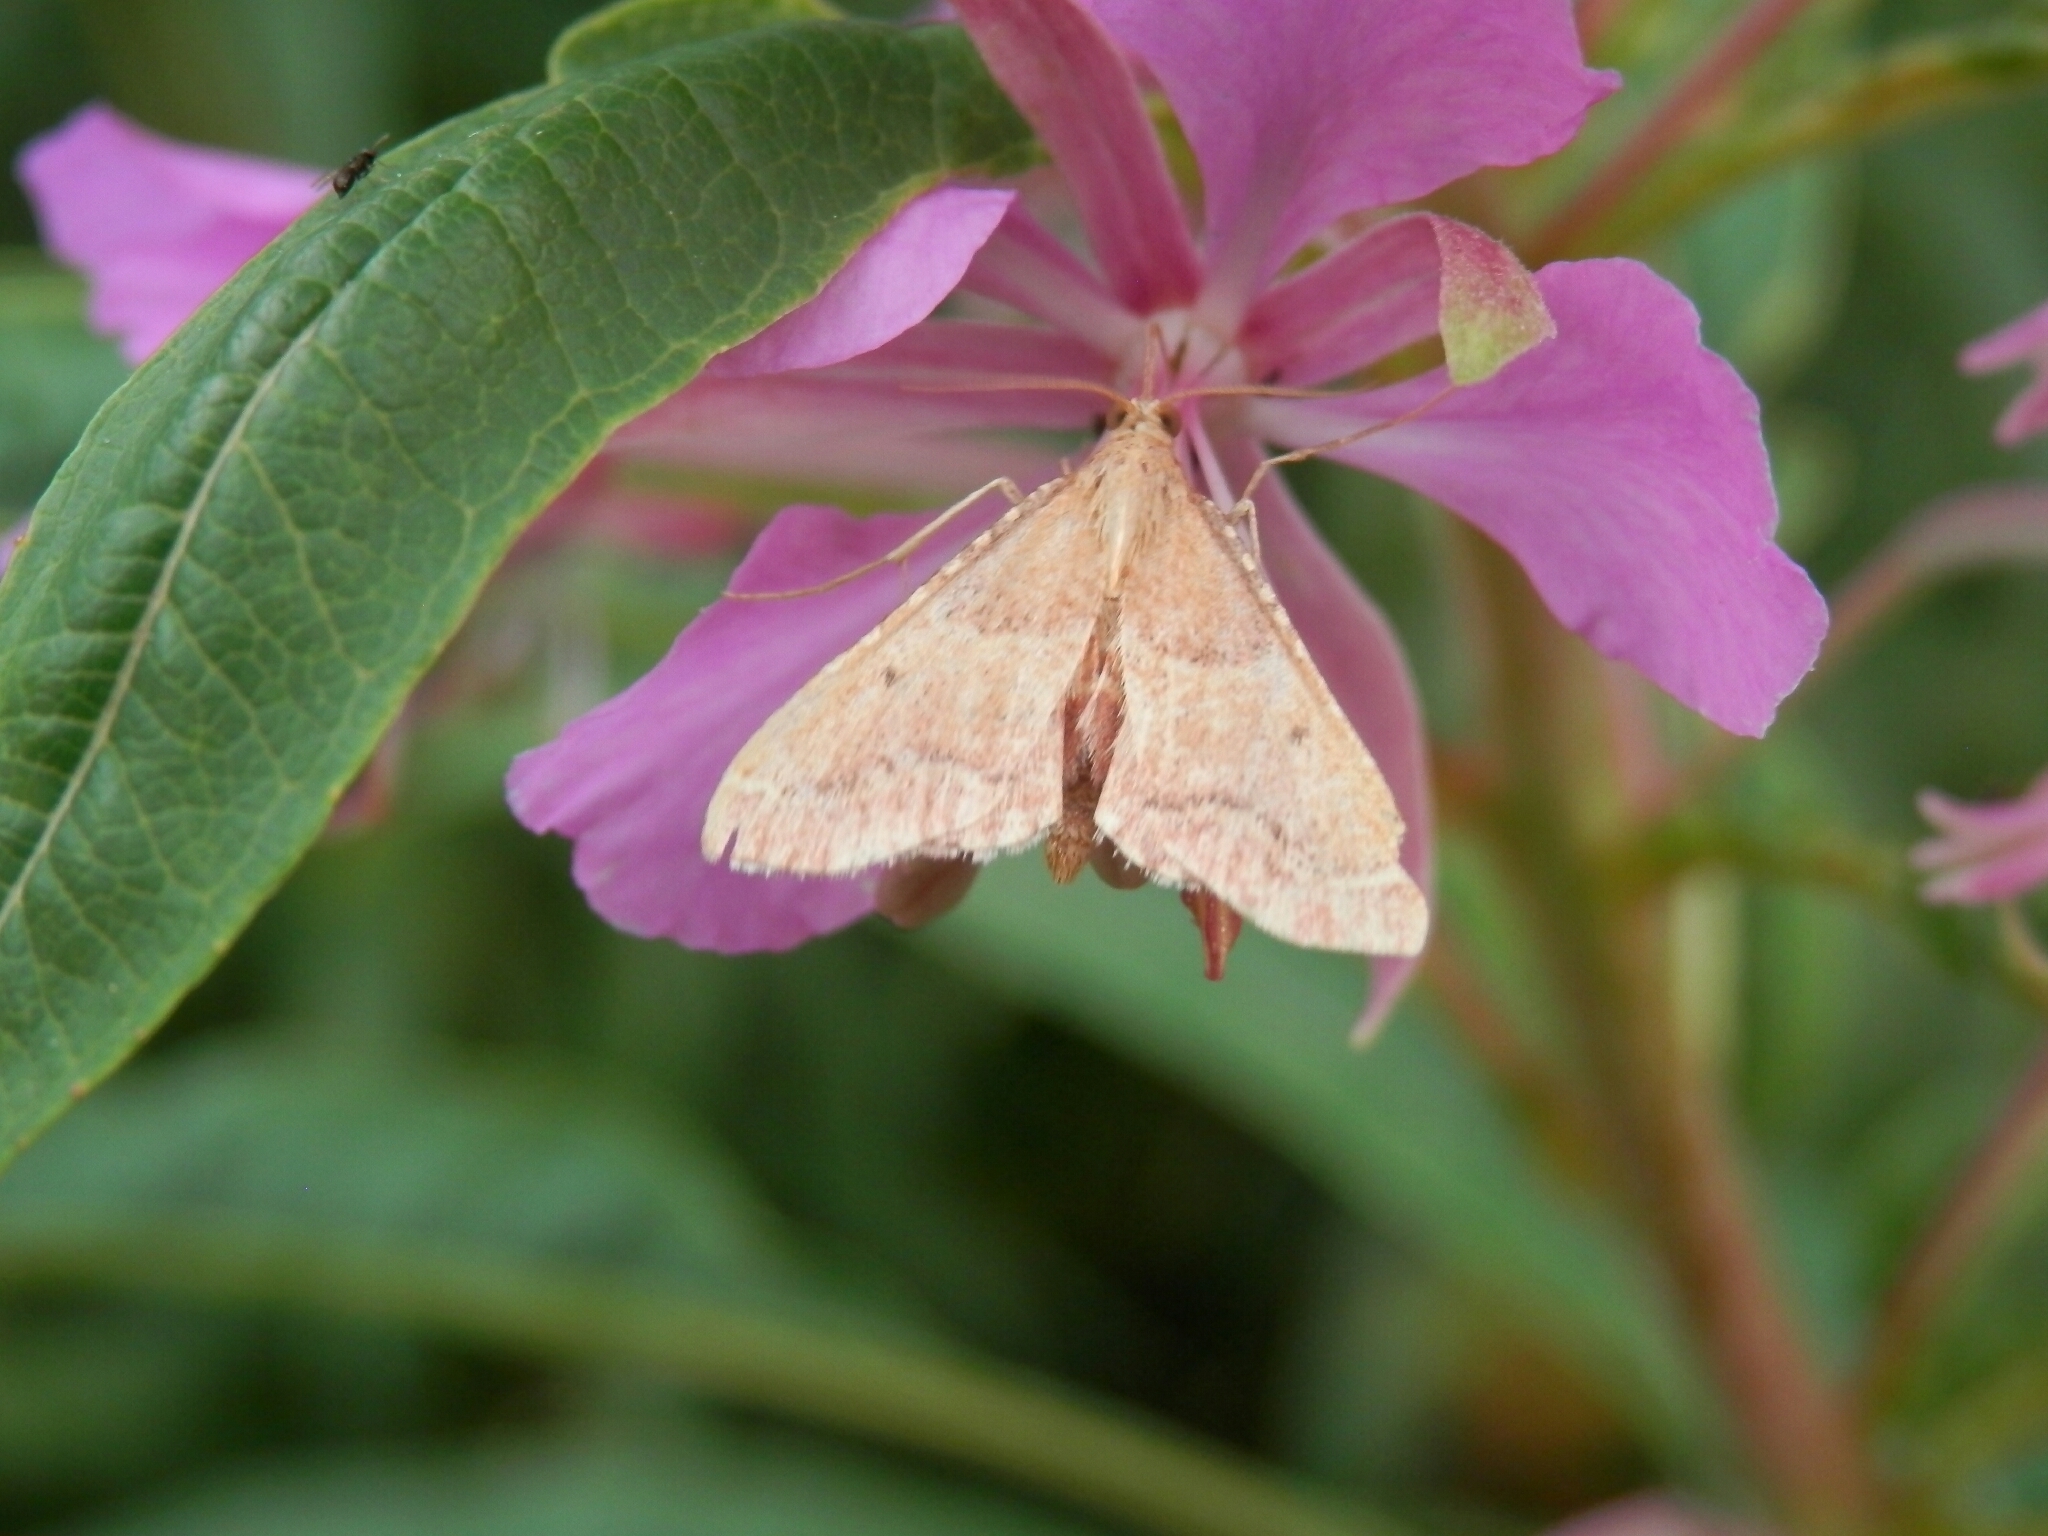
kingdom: Animalia
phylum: Arthropoda
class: Insecta
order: Lepidoptera
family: Pyralidae
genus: Endotricha
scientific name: Endotricha flammealis
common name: Rosy tabby
